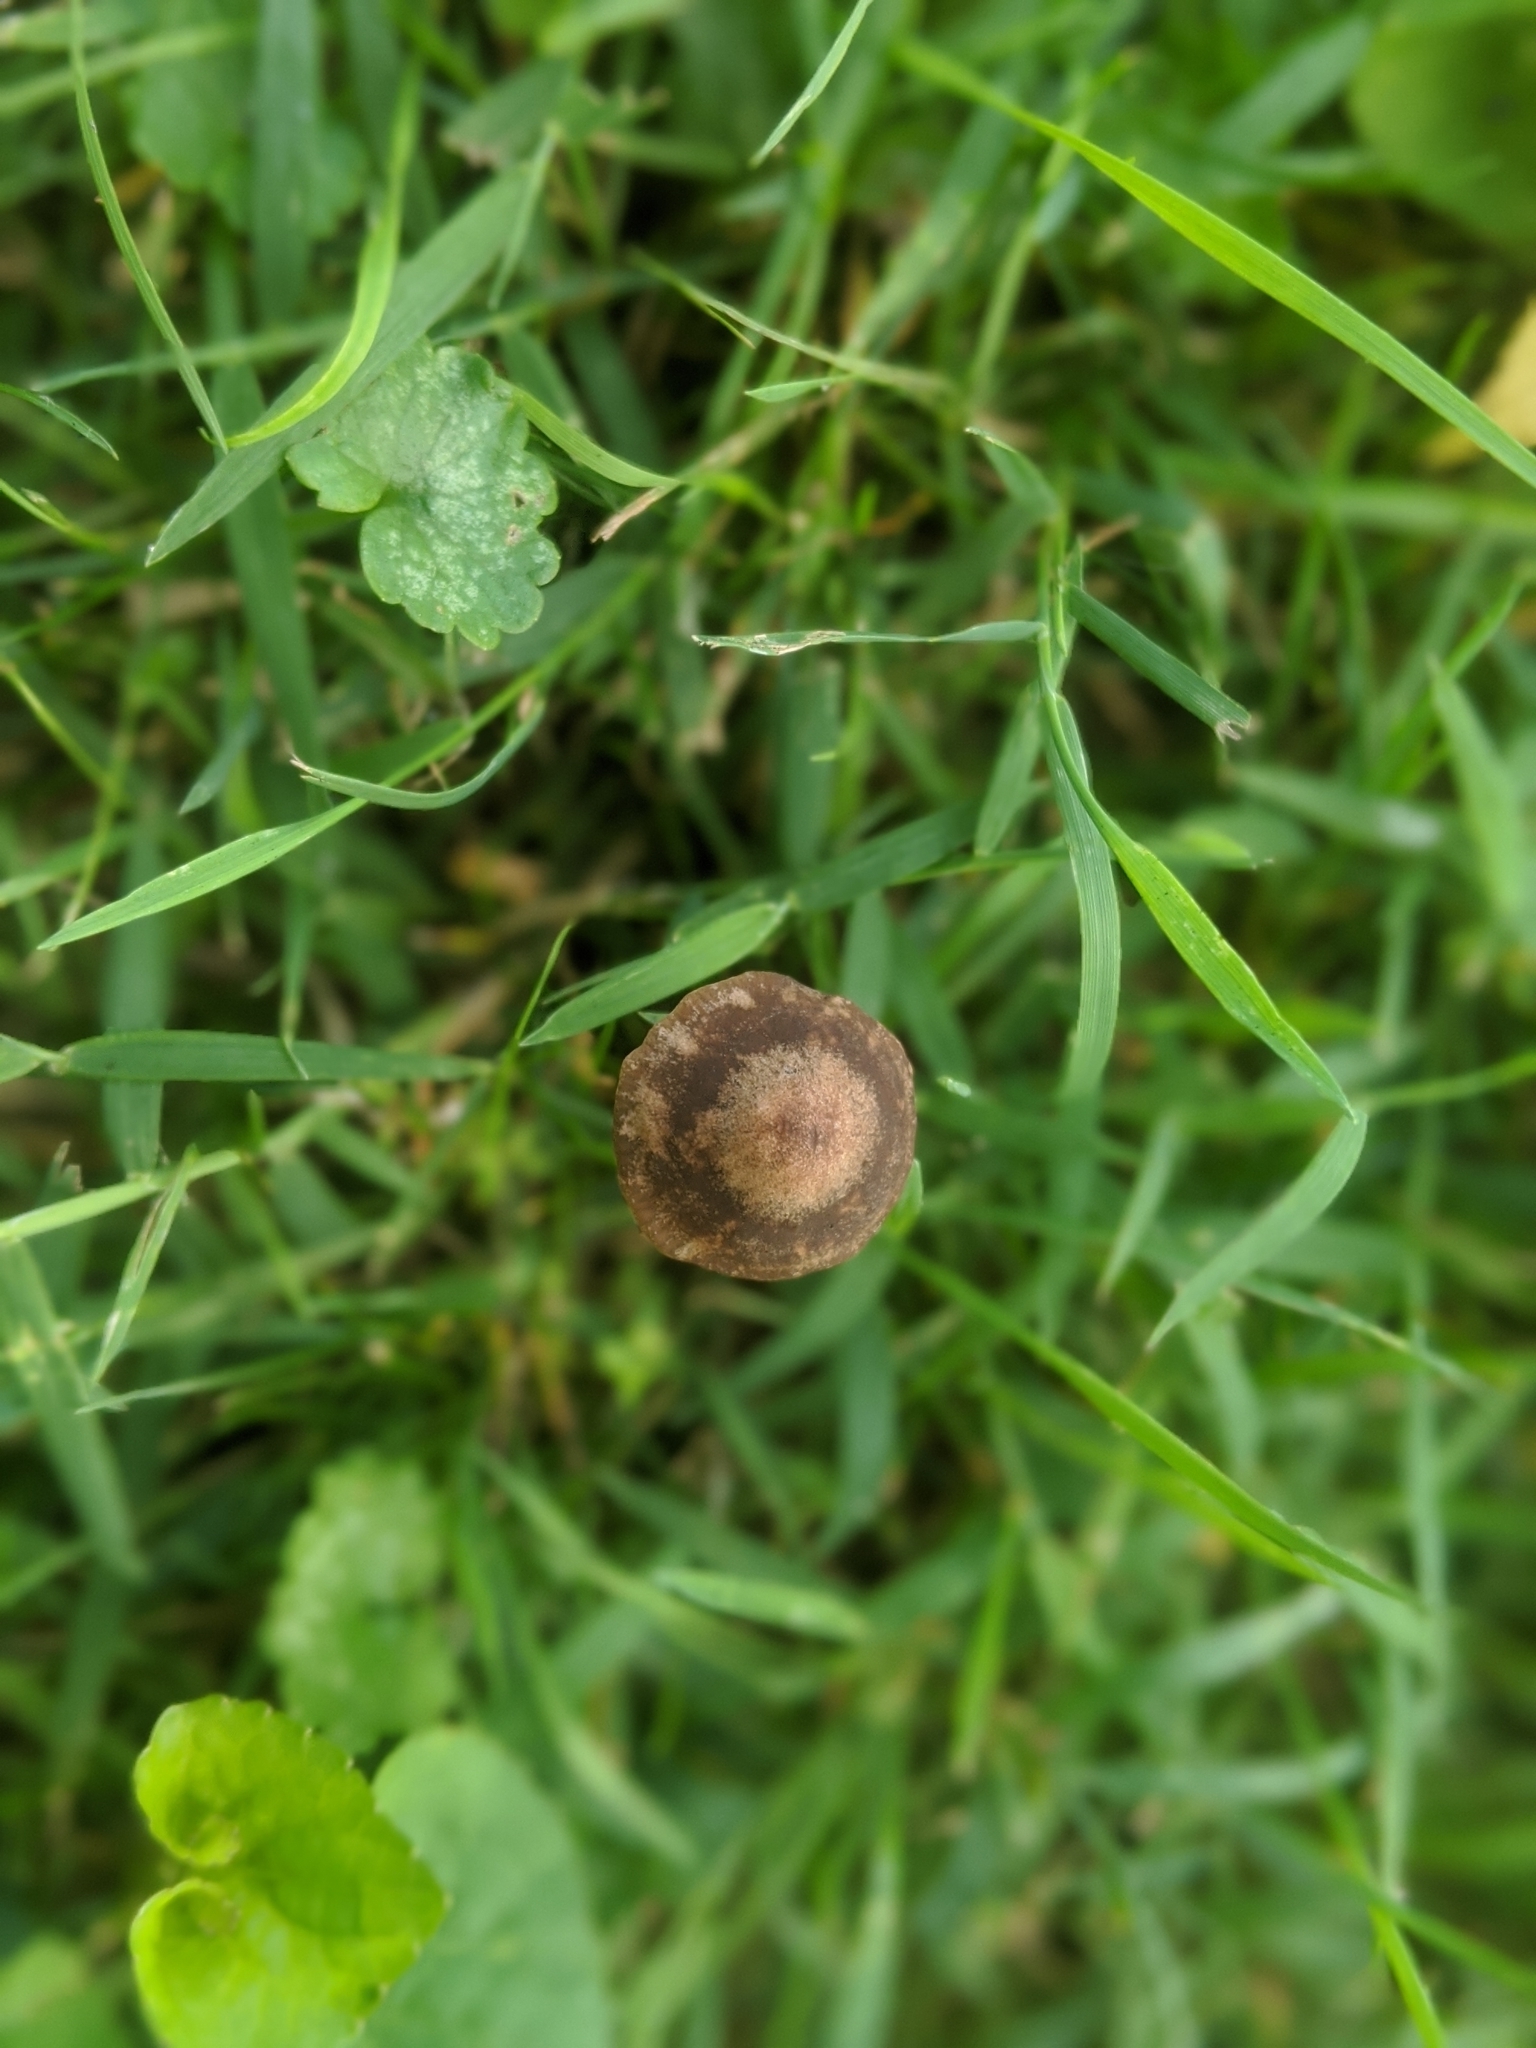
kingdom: Fungi
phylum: Basidiomycota
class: Agaricomycetes
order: Agaricales
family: Bolbitiaceae
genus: Panaeolina
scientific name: Panaeolina foenisecii
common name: Brown hay cap
